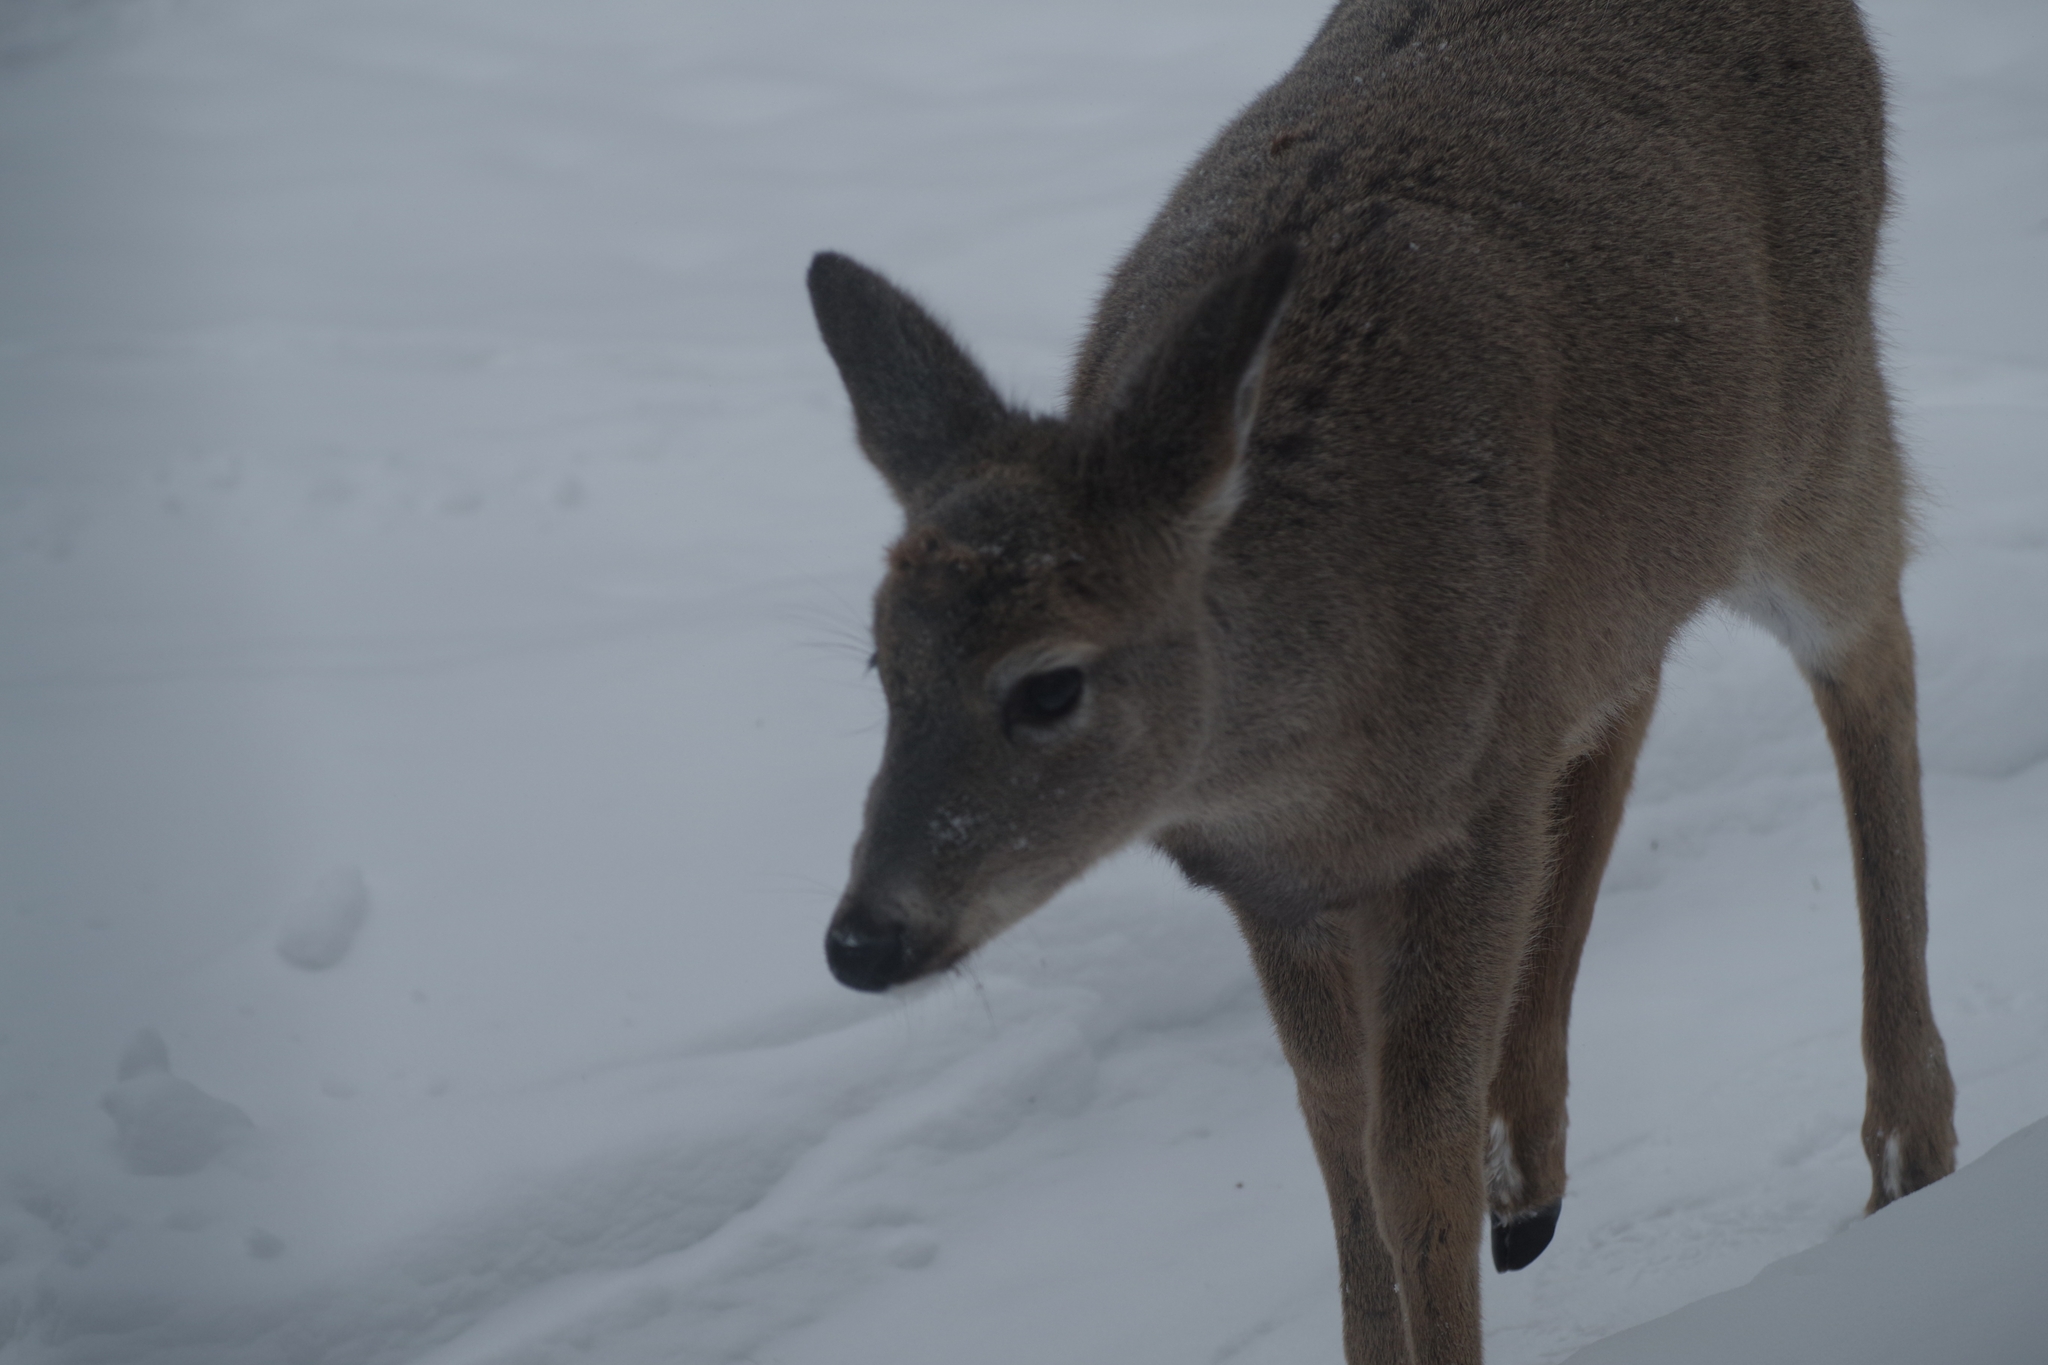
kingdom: Animalia
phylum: Chordata
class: Mammalia
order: Artiodactyla
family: Cervidae
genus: Odocoileus
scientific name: Odocoileus virginianus
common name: White-tailed deer
